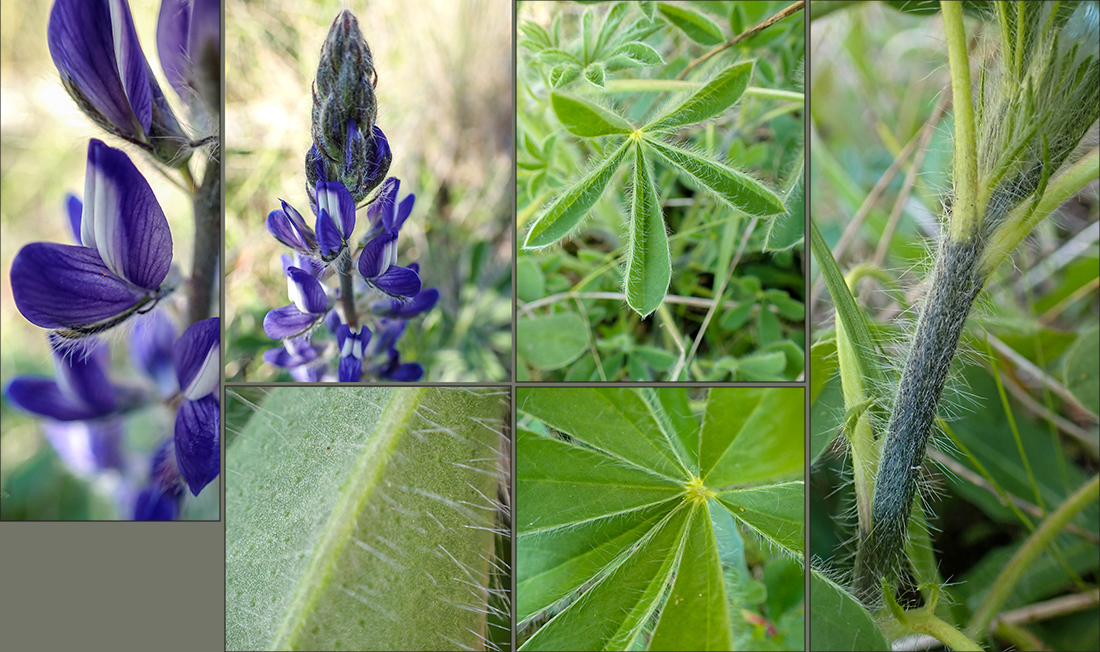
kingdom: Plantae
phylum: Tracheophyta
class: Magnoliopsida
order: Fabales
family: Fabaceae
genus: Lupinus
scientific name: Lupinus gussoneanus
